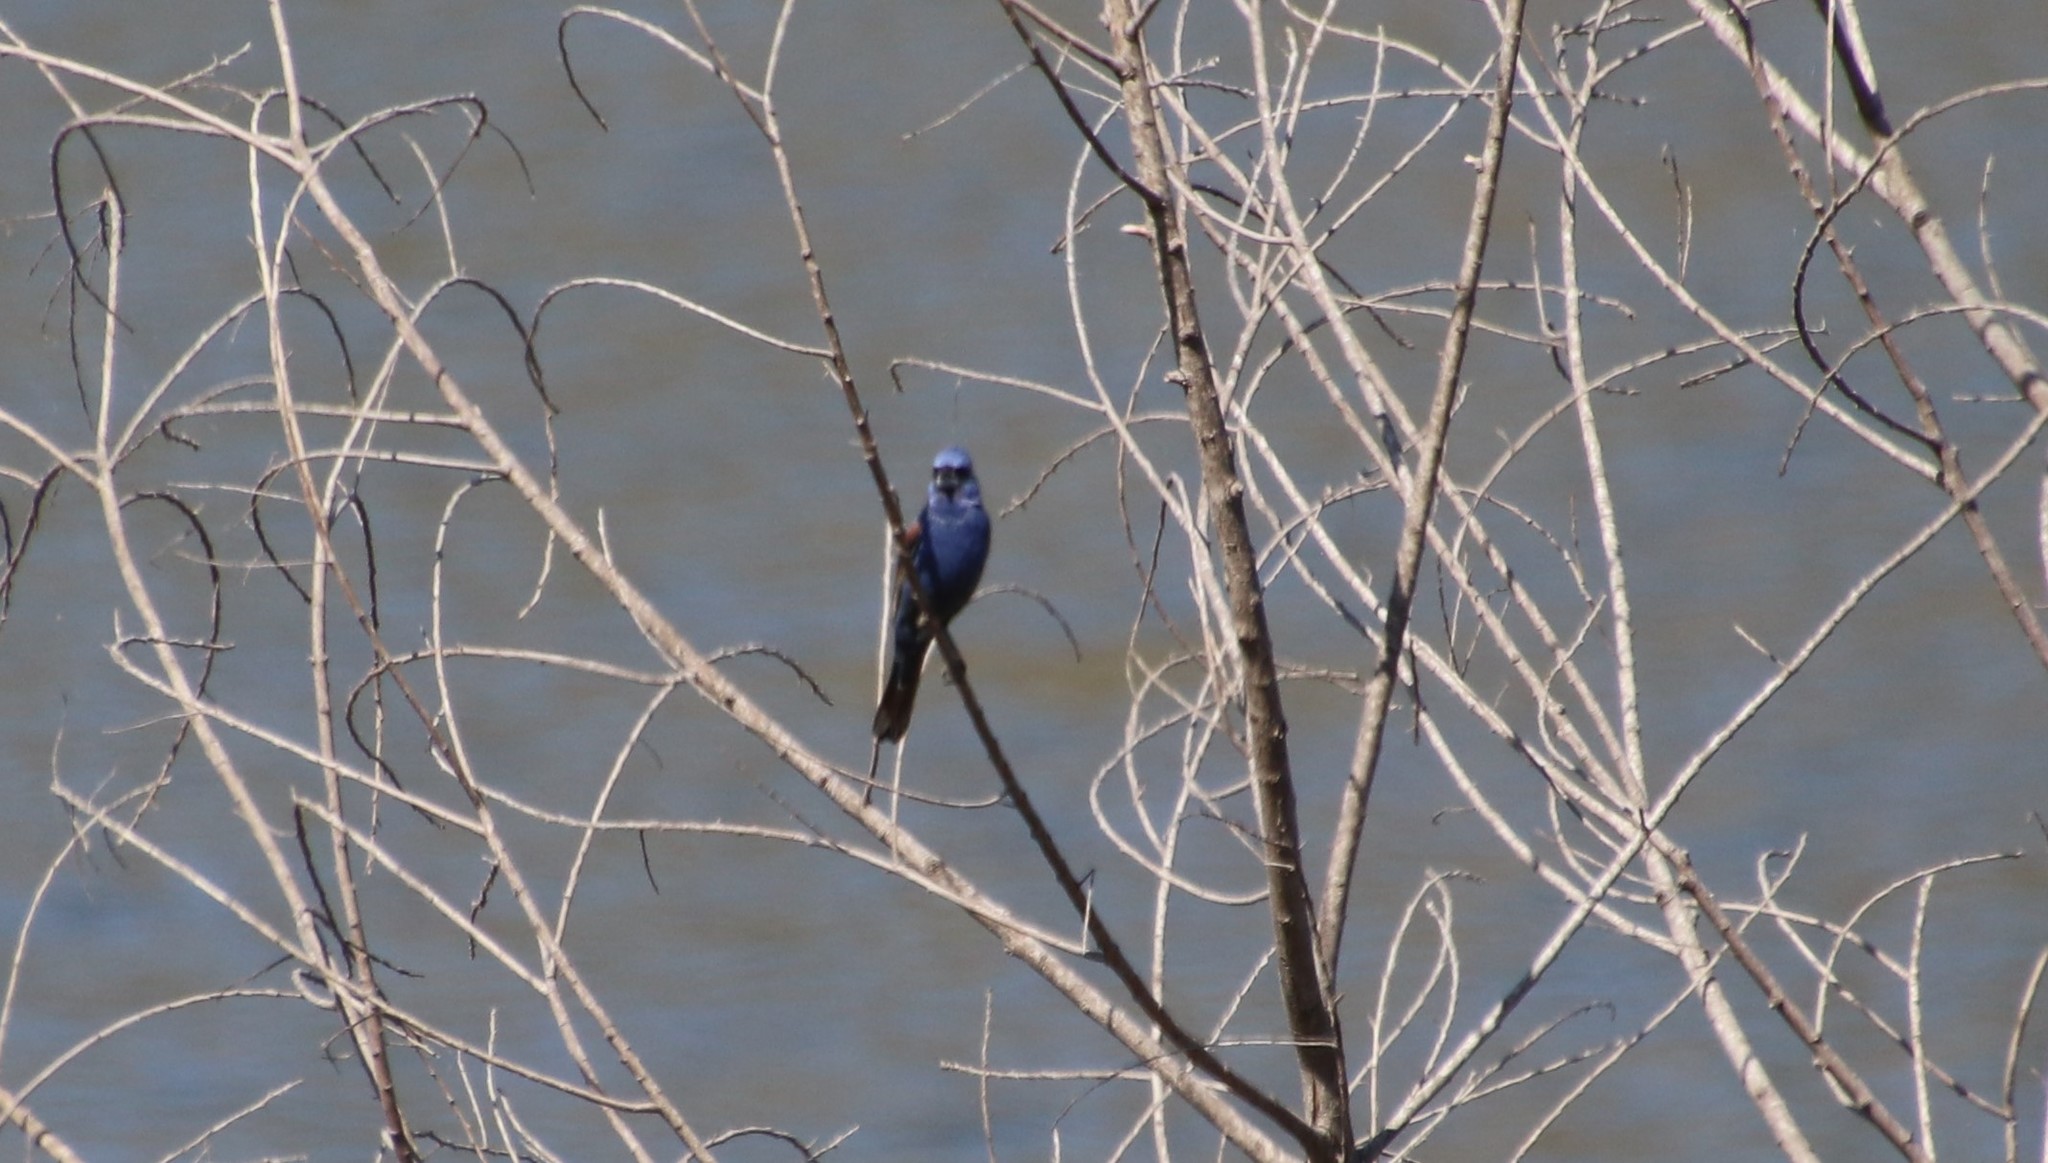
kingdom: Animalia
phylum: Chordata
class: Aves
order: Passeriformes
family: Cardinalidae
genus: Passerina
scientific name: Passerina caerulea
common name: Blue grosbeak
